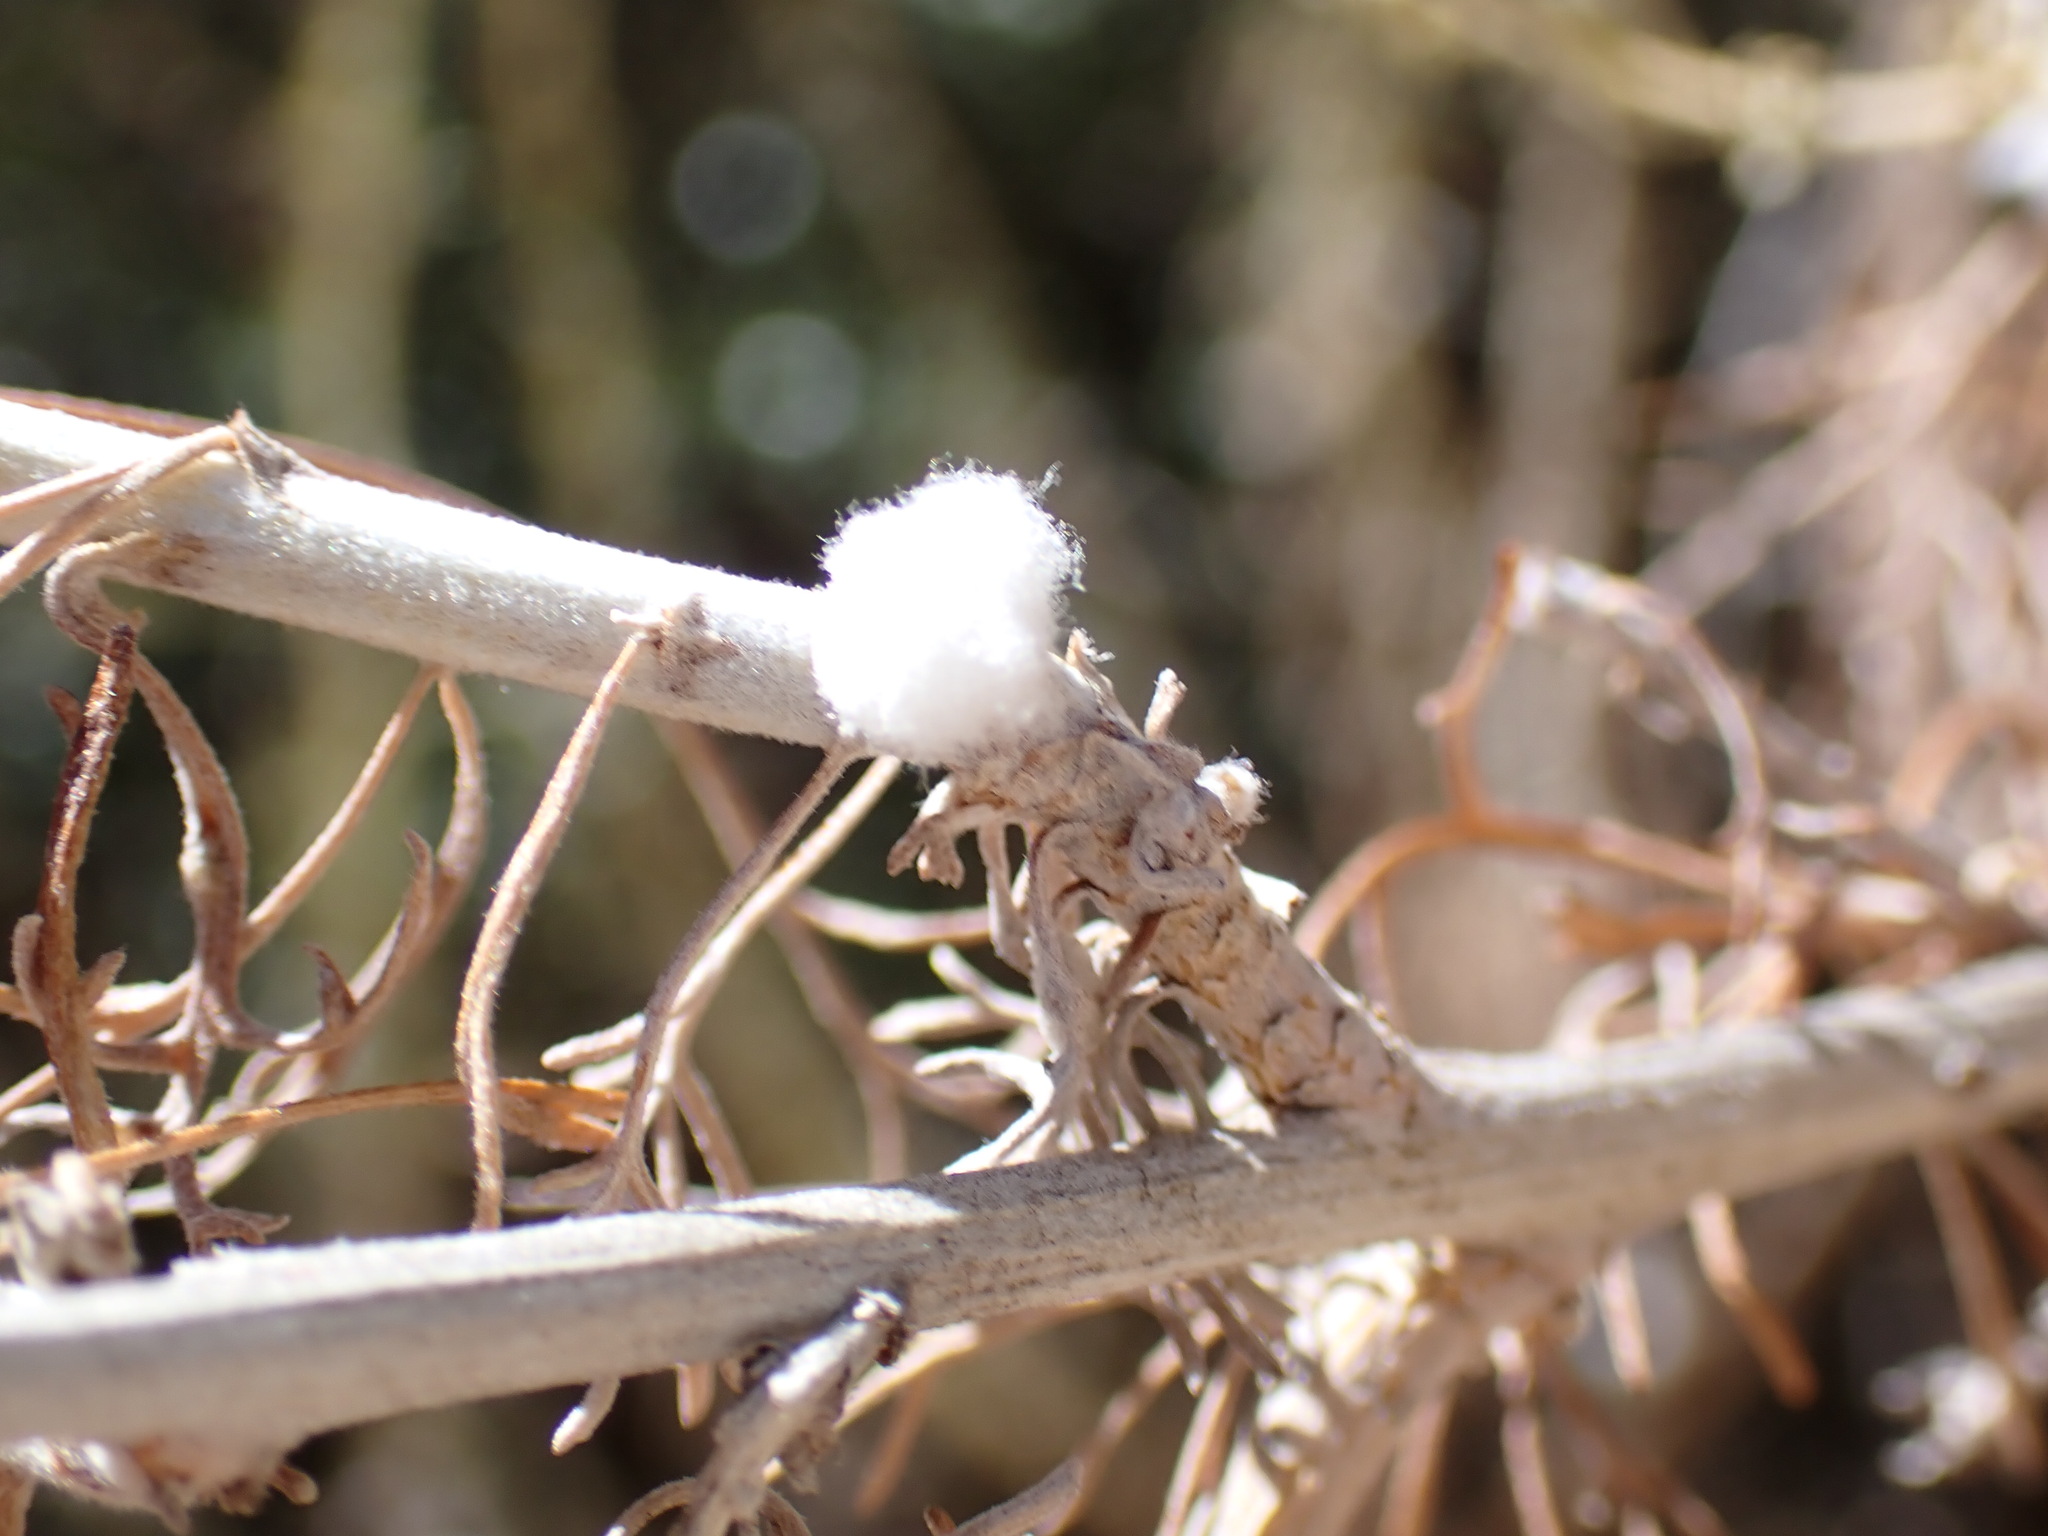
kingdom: Animalia
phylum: Arthropoda
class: Insecta
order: Diptera
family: Cecidomyiidae
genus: Rhopalomyia
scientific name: Rhopalomyia floccosa
